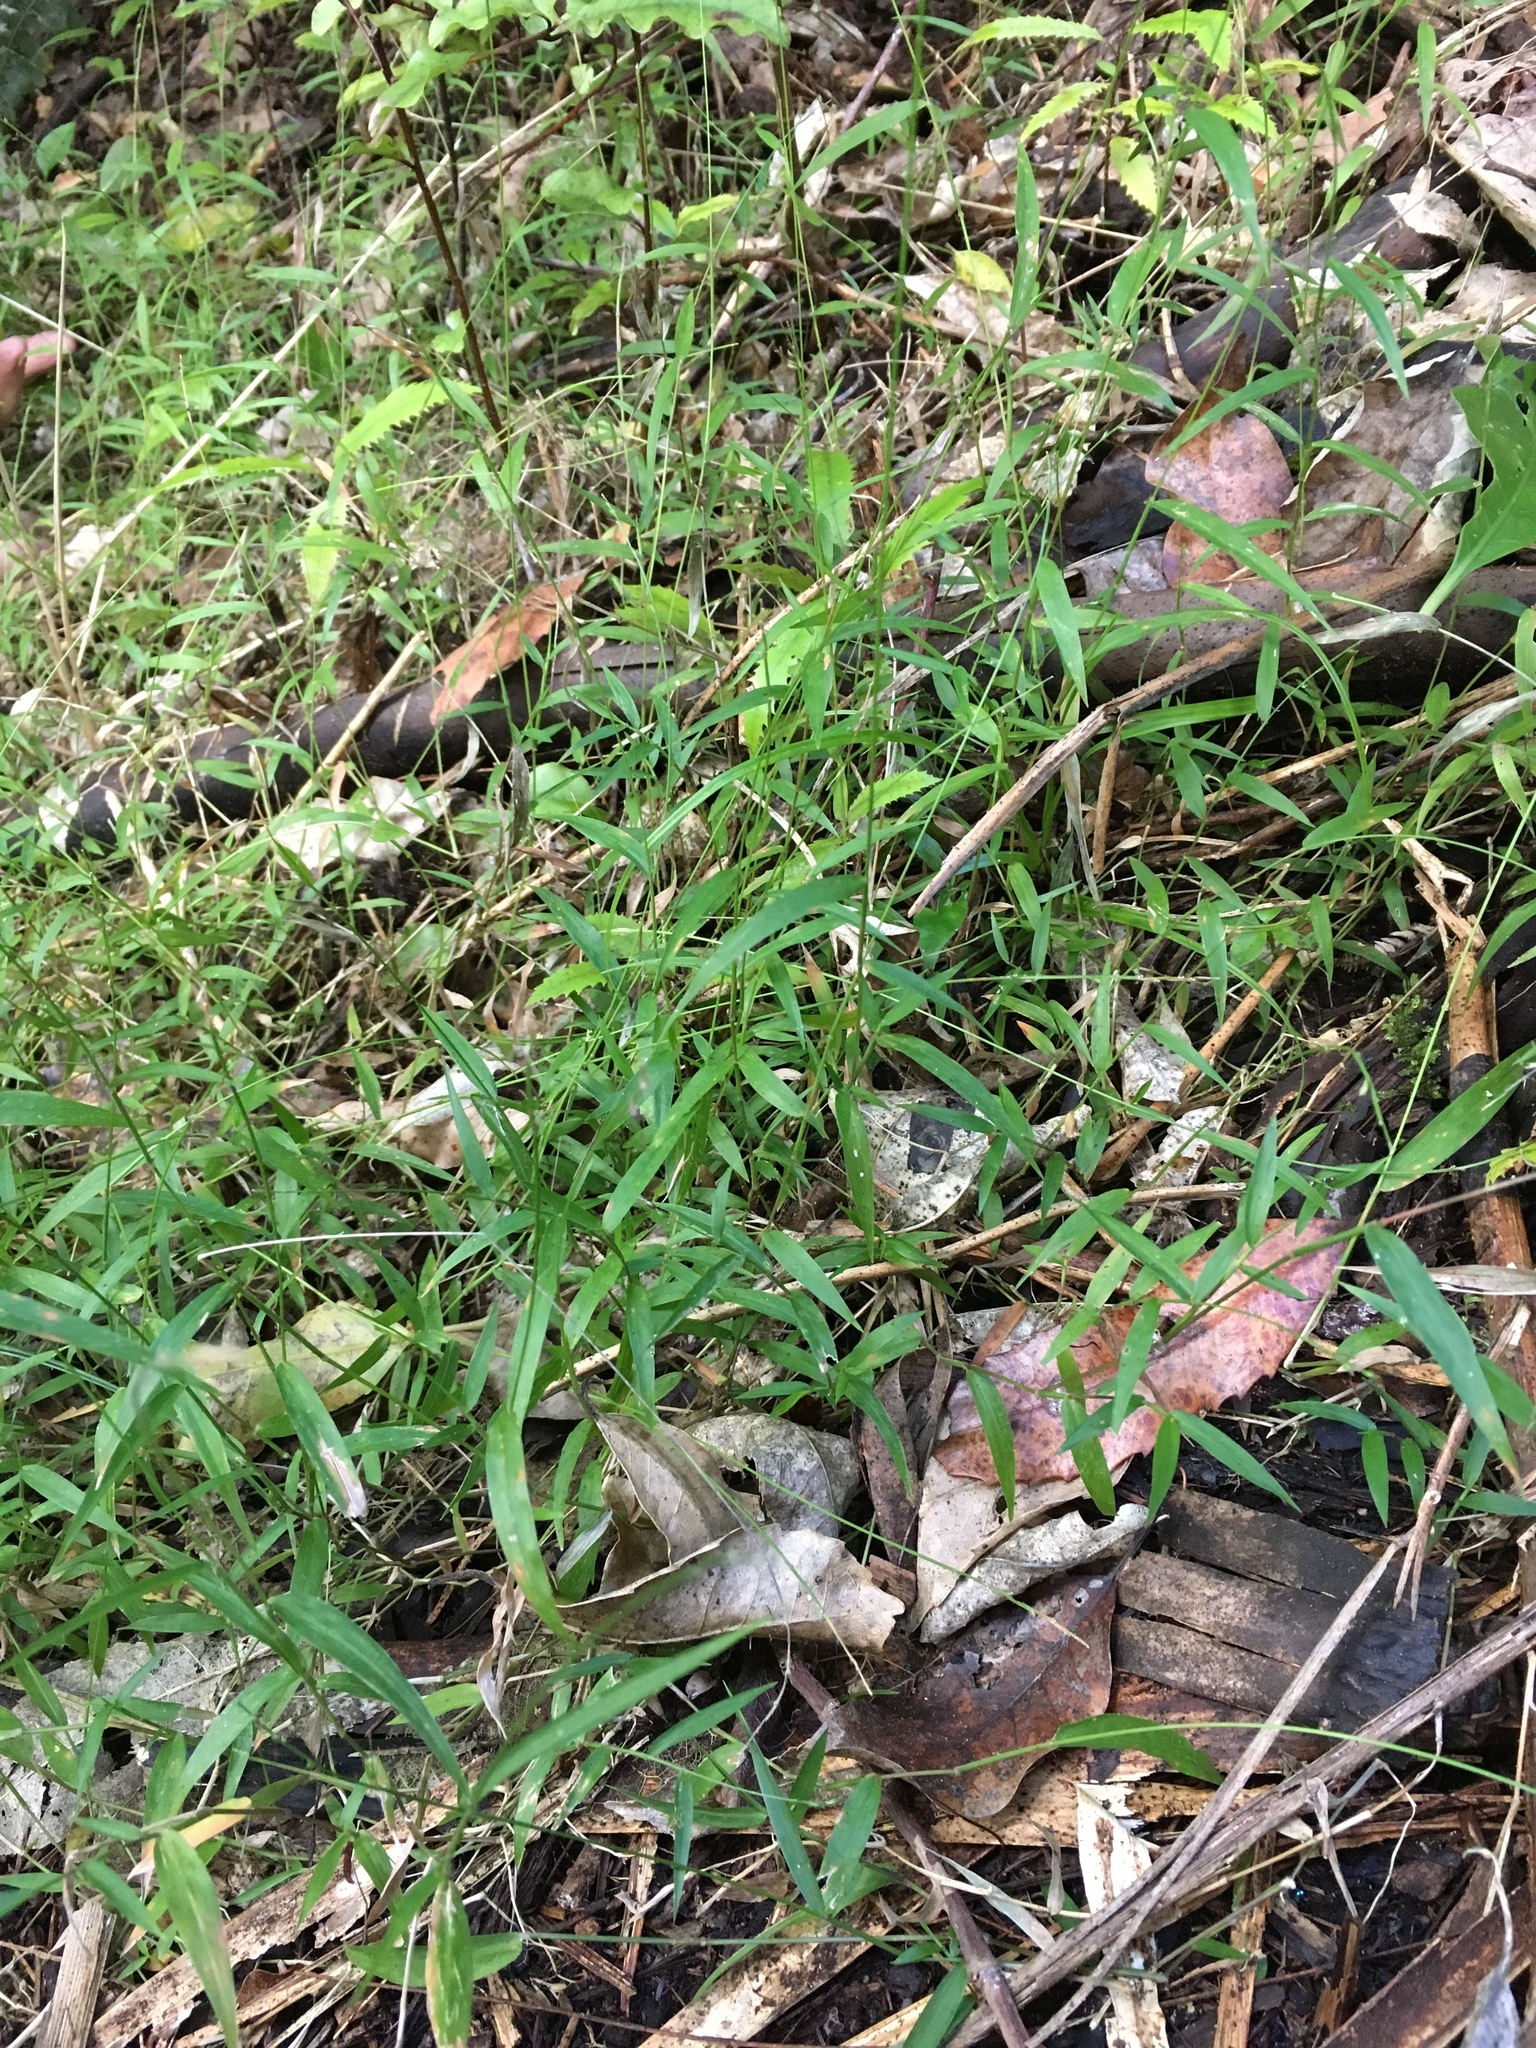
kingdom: Plantae
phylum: Tracheophyta
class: Liliopsida
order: Poales
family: Poaceae
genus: Oplismenus
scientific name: Oplismenus hirtellus
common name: Basketgrass
